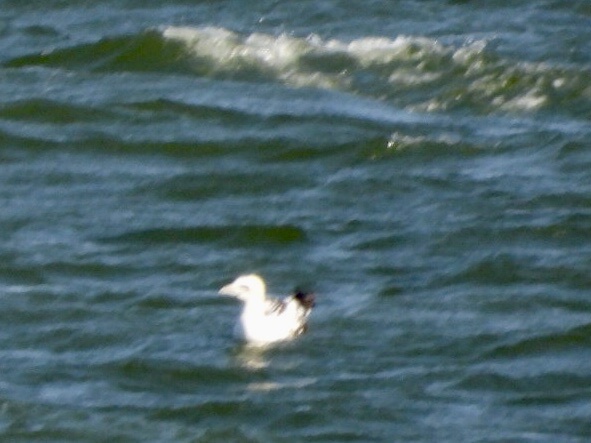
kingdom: Animalia
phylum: Chordata
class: Aves
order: Suliformes
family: Sulidae
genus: Morus
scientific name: Morus bassanus
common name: Northern gannet
